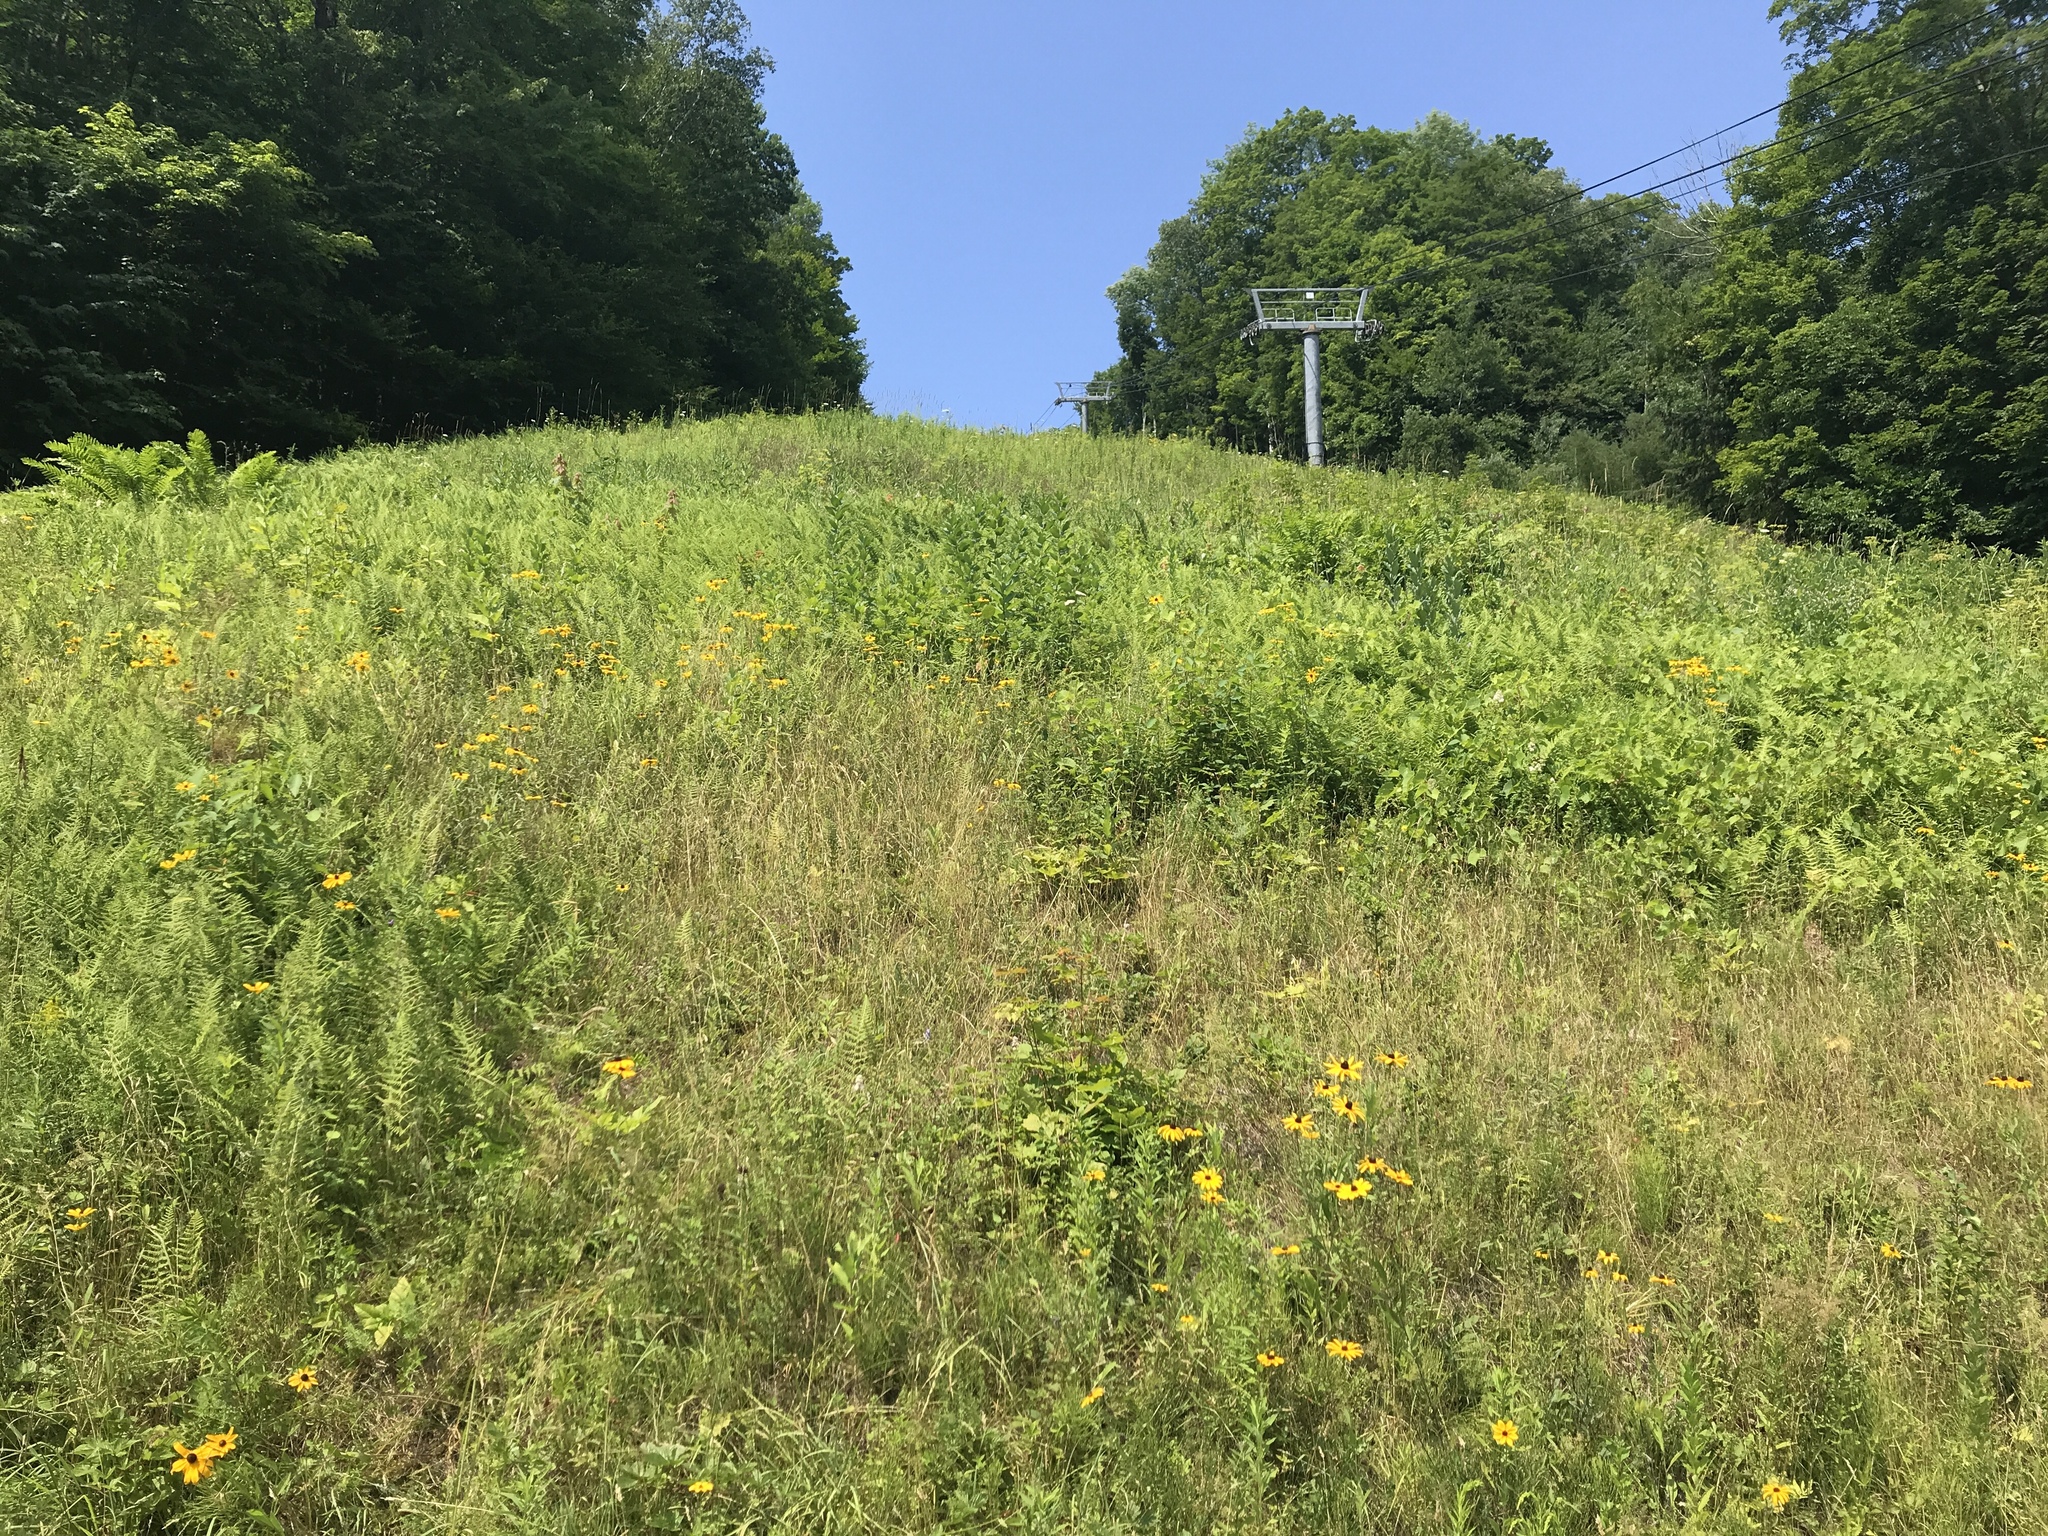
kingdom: Plantae
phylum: Tracheophyta
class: Magnoliopsida
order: Asterales
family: Asteraceae
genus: Rudbeckia
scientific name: Rudbeckia hirta
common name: Black-eyed-susan
